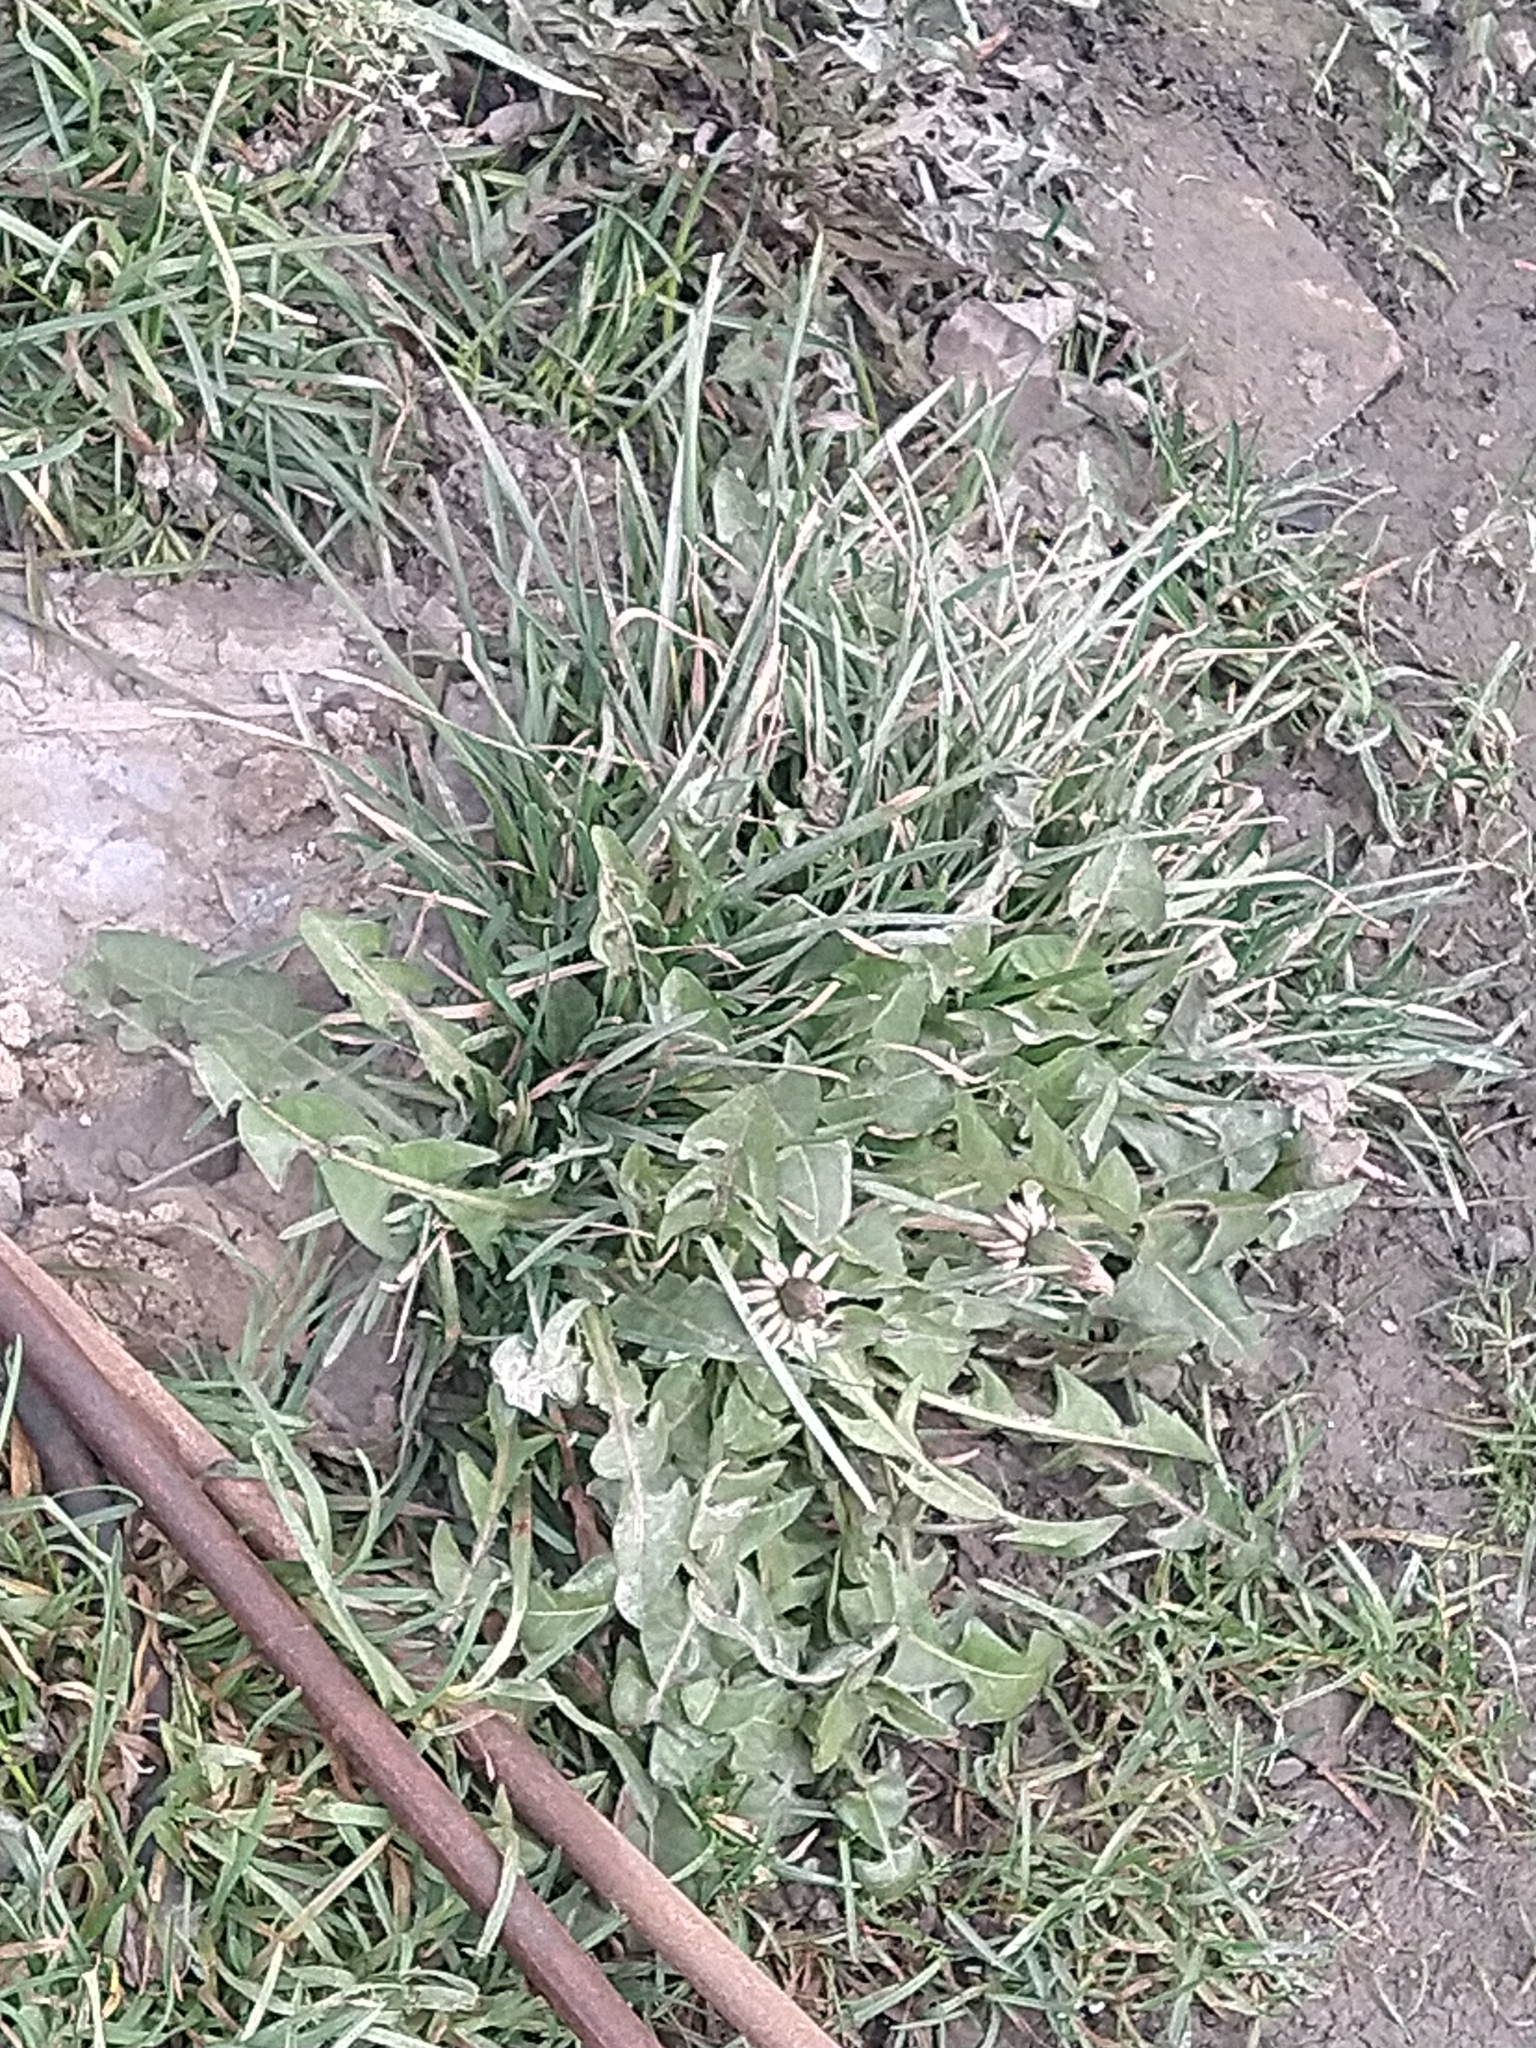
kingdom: Plantae
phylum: Tracheophyta
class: Magnoliopsida
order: Asterales
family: Asteraceae
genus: Taraxacum
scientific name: Taraxacum officinale
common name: Common dandelion
